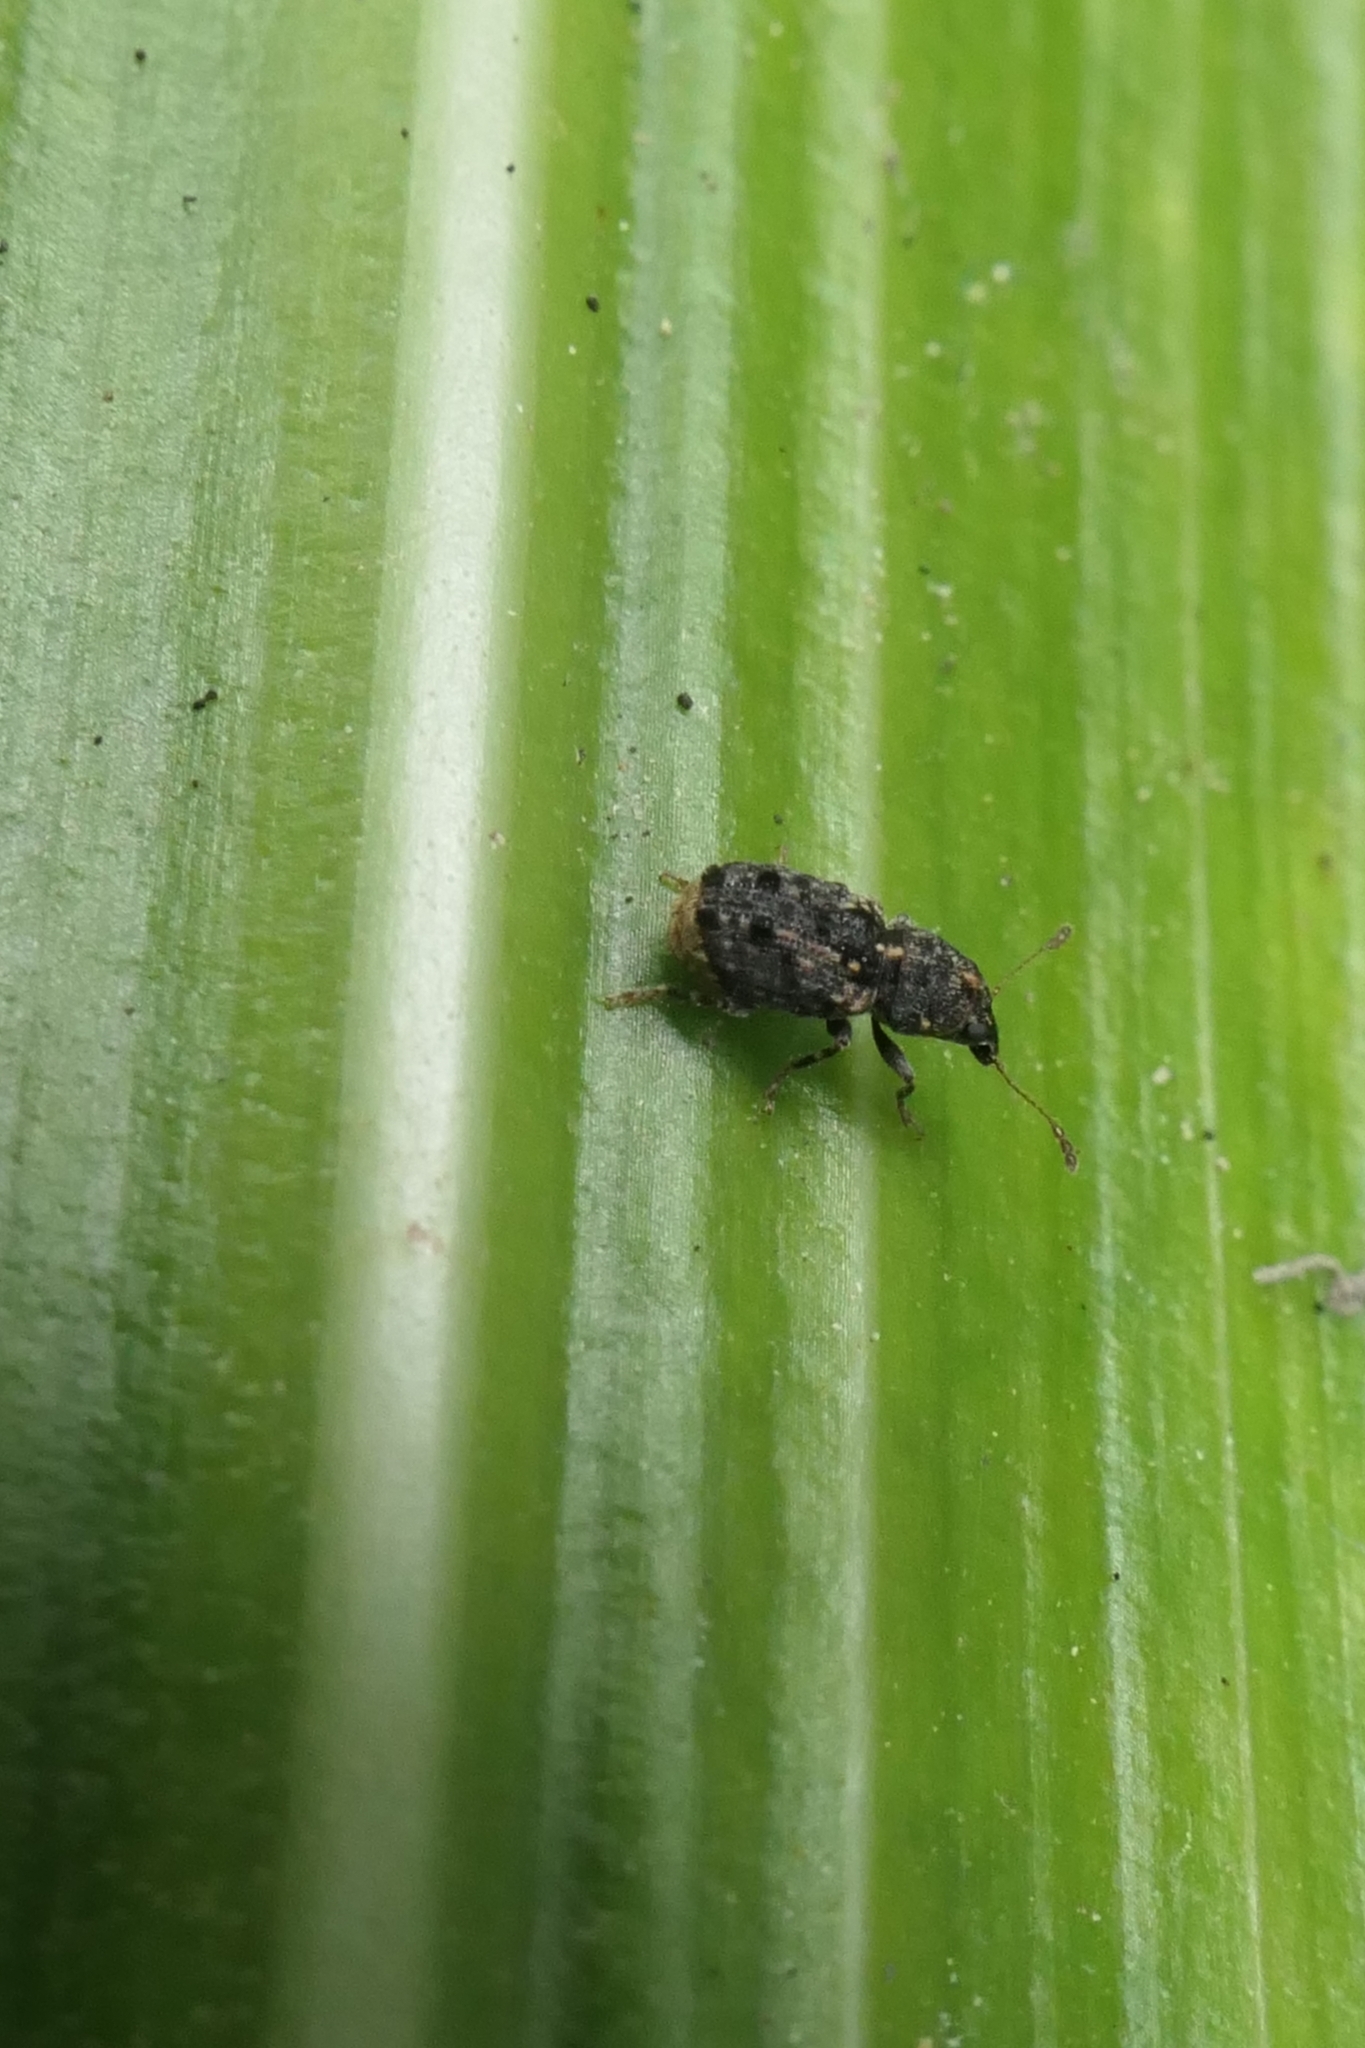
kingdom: Animalia
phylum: Arthropoda
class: Insecta
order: Coleoptera
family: Anthribidae
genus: Pleosporius
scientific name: Pleosporius bullatus
